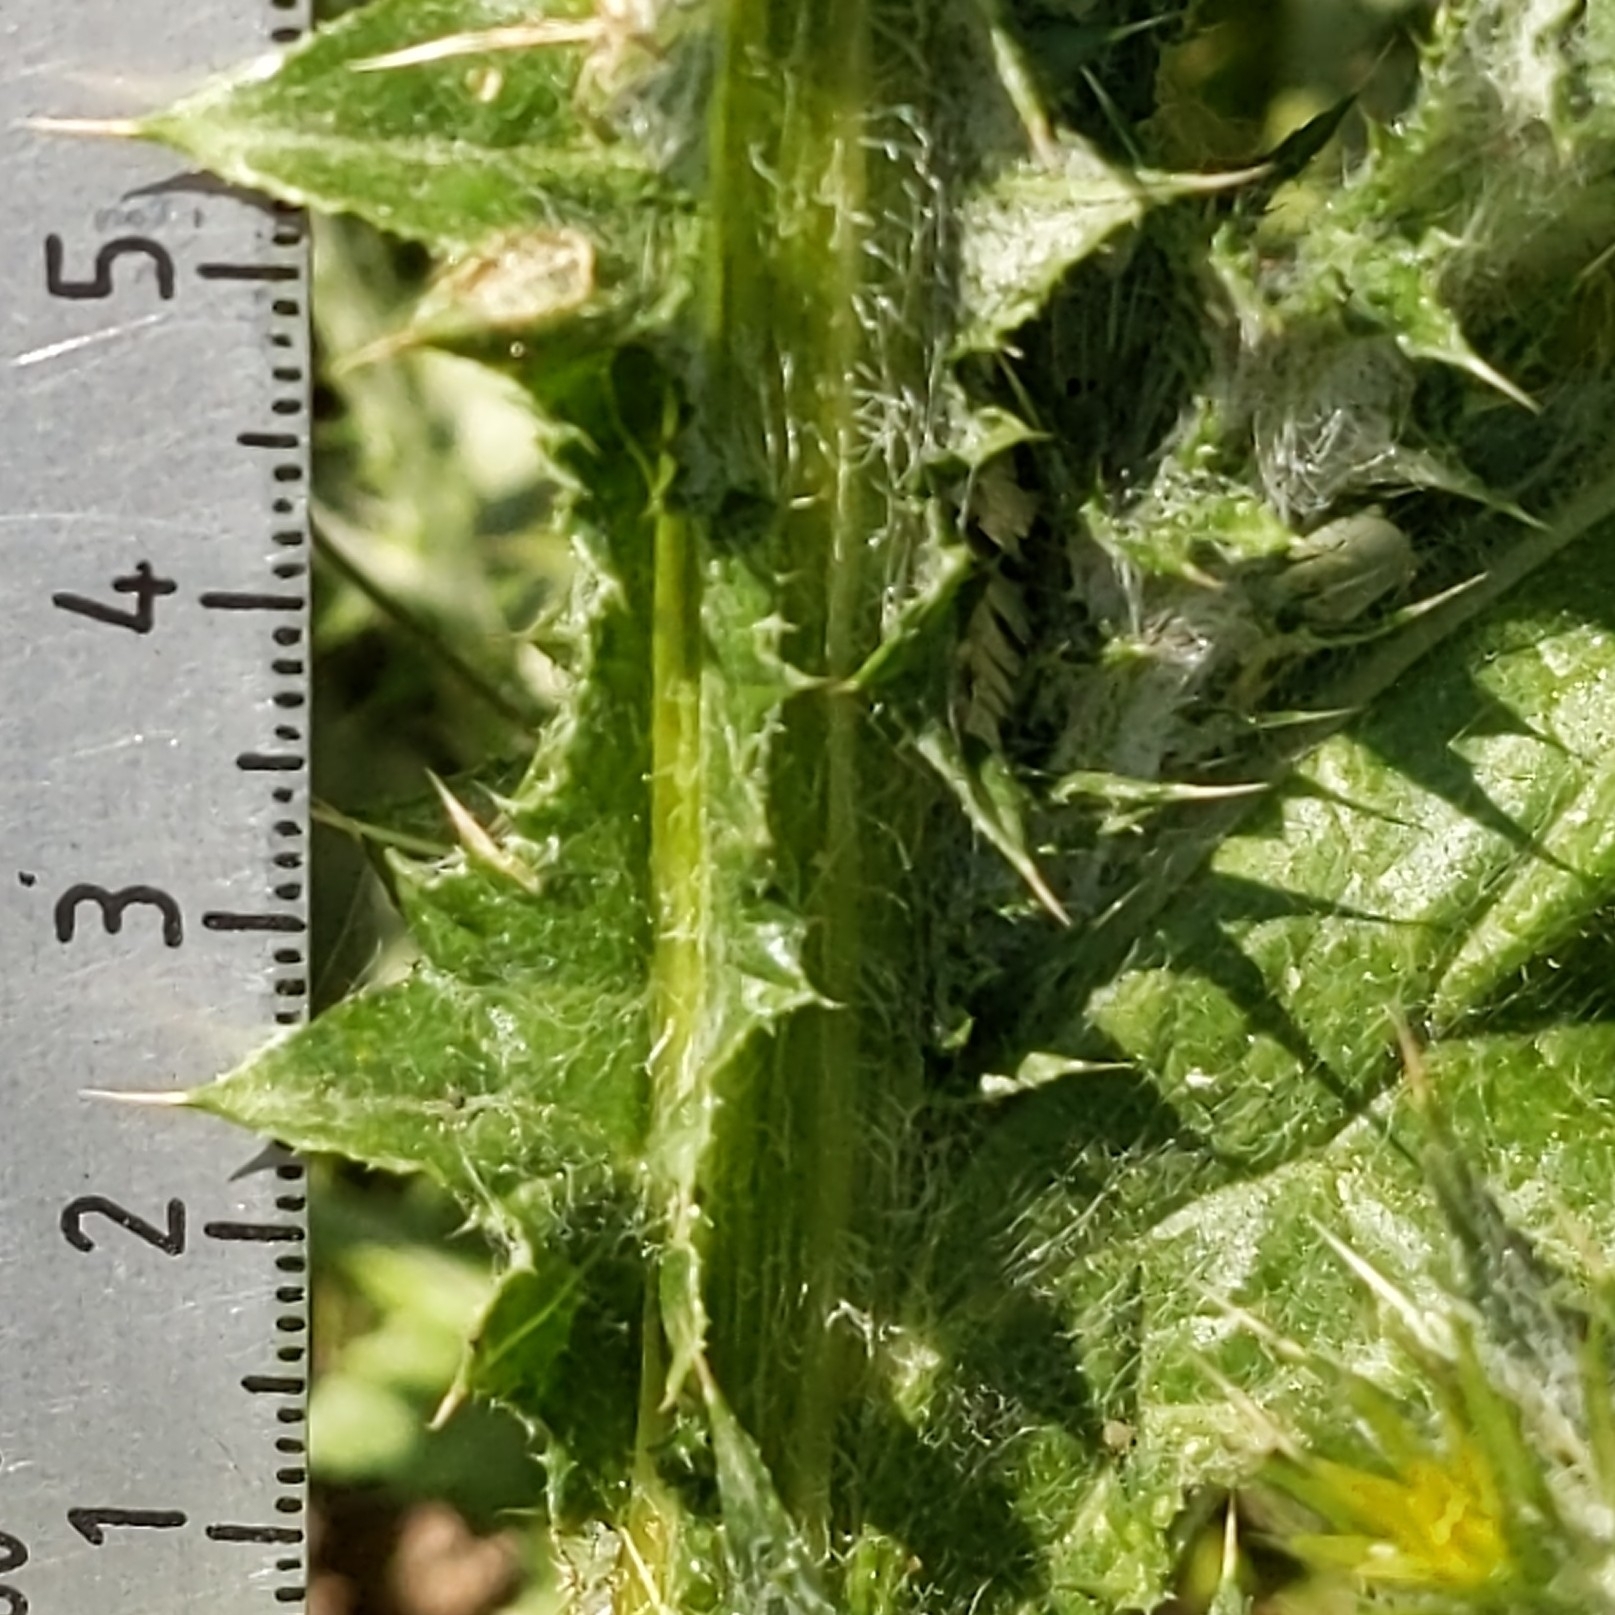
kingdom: Plantae
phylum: Tracheophyta
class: Magnoliopsida
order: Asterales
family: Asteraceae
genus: Carduus
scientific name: Carduus pycnocephalus
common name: Plymouth thistle
